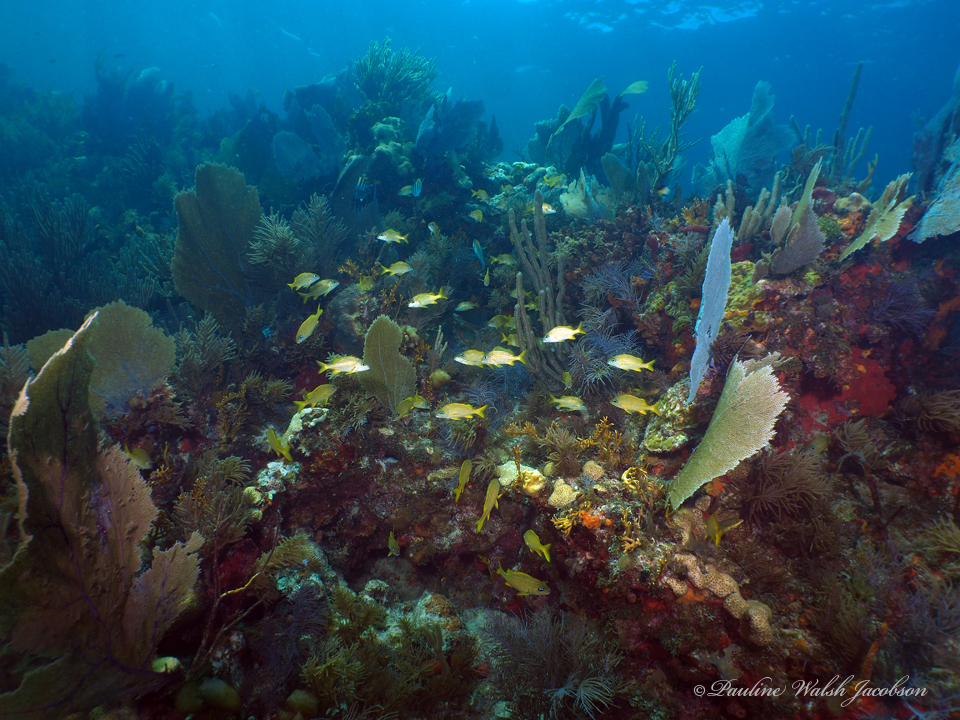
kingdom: Animalia
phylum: Chordata
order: Perciformes
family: Haemulidae
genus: Haemulon
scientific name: Haemulon flavolineatum
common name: French grunt
